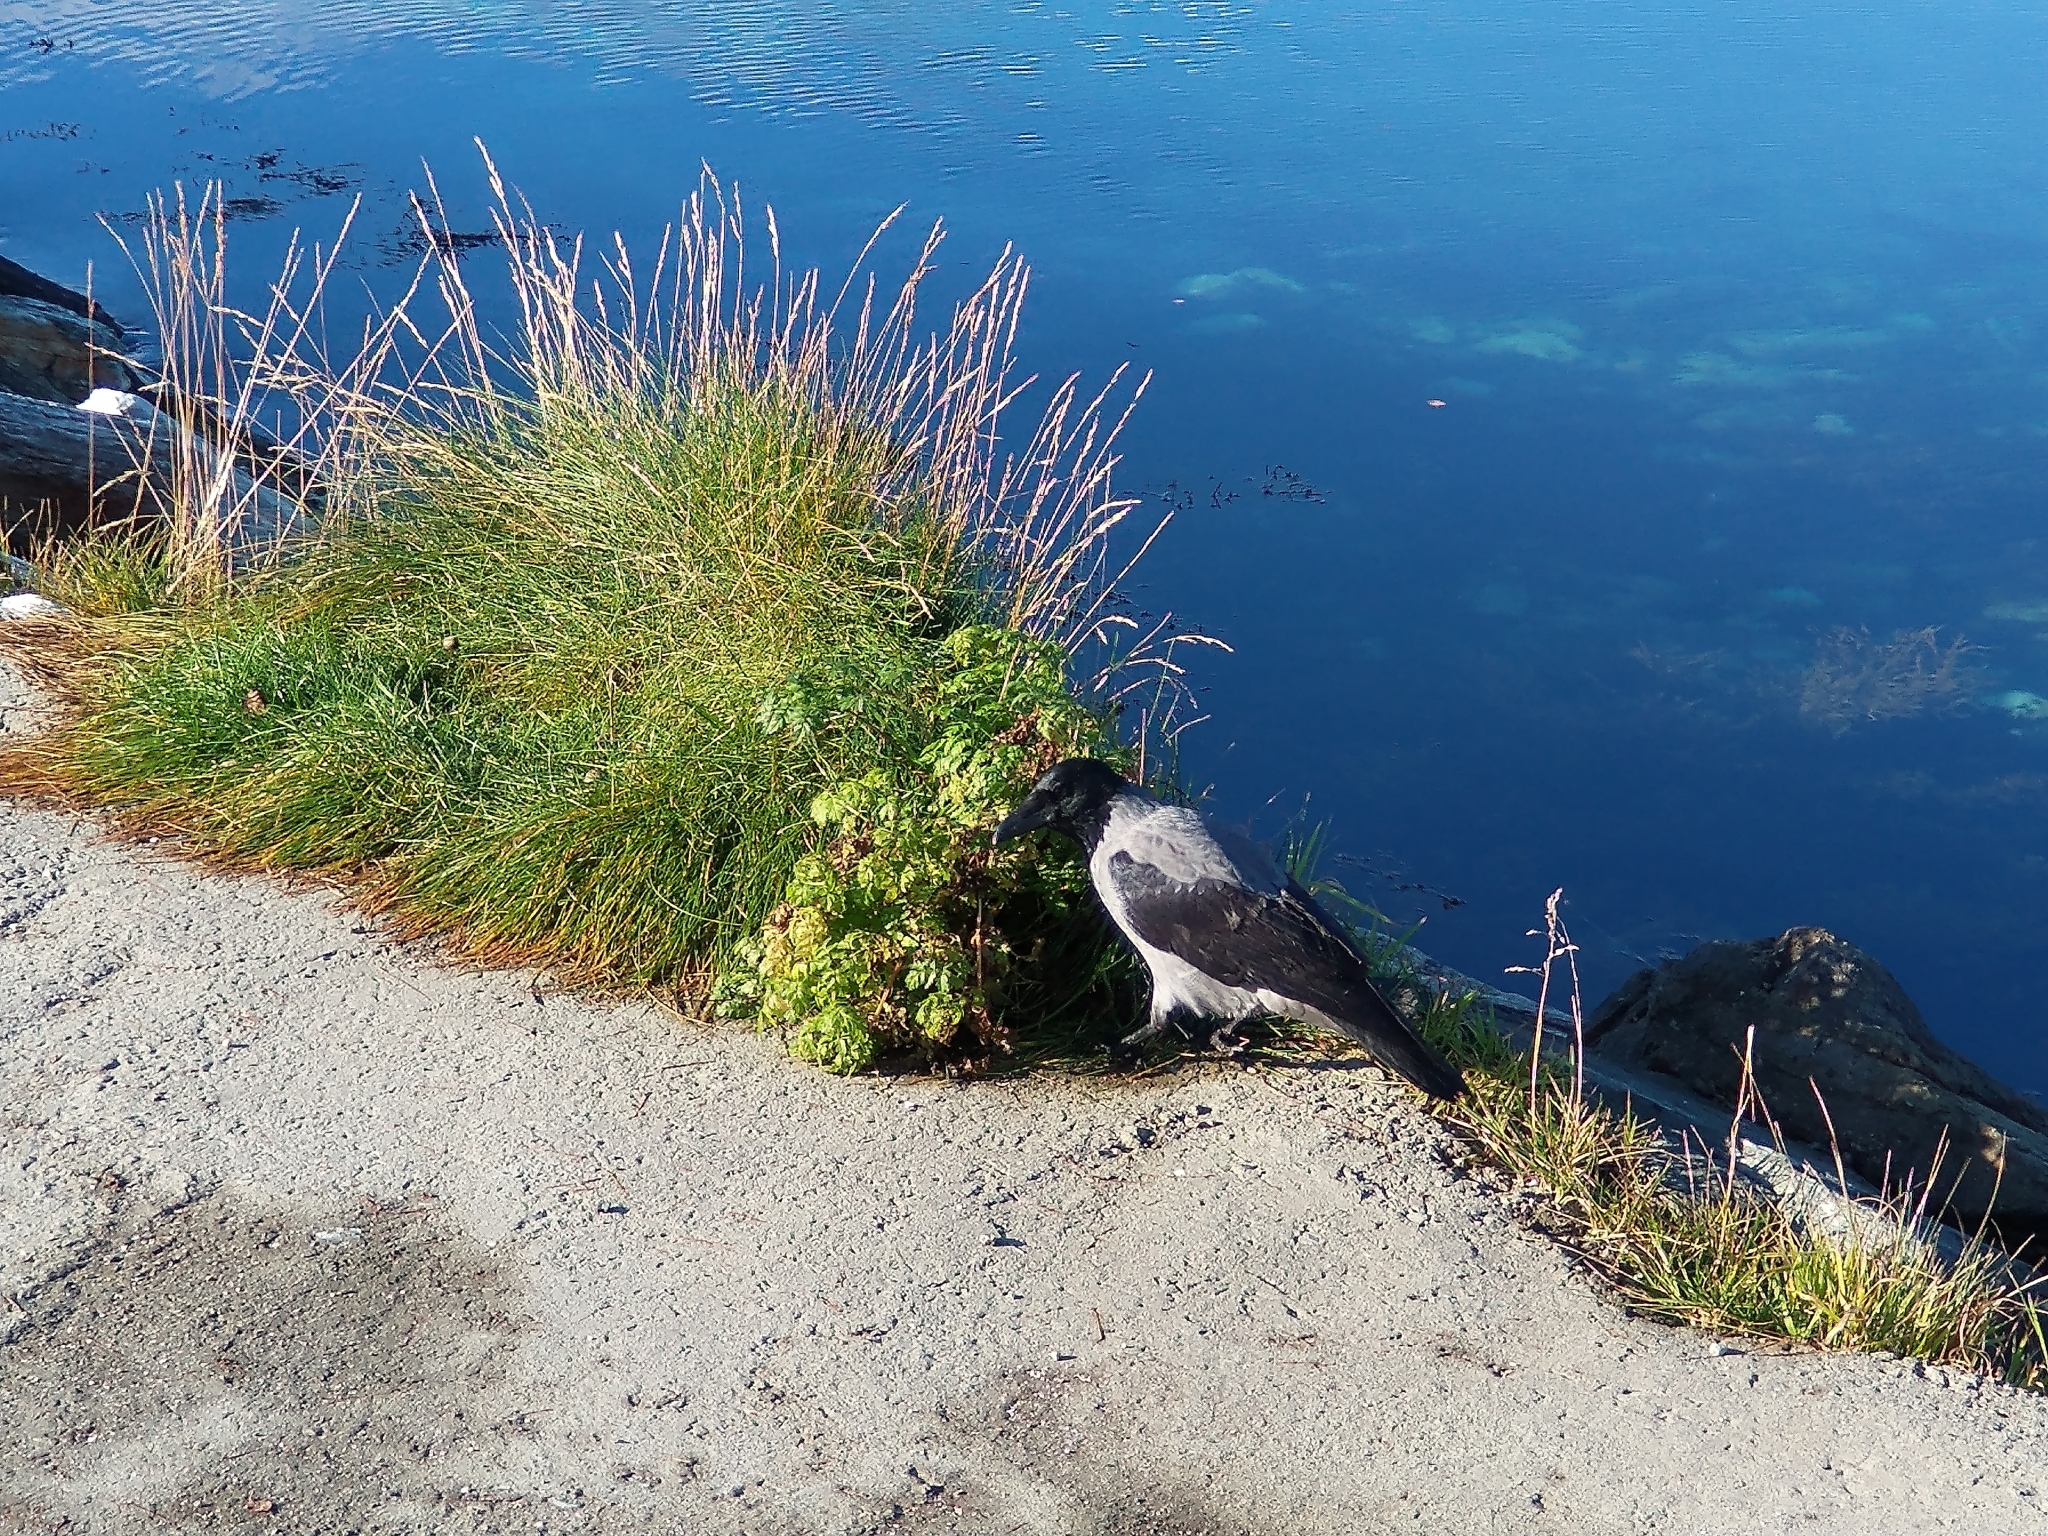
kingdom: Animalia
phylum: Chordata
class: Aves
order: Passeriformes
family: Corvidae
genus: Corvus
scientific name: Corvus cornix
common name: Hooded crow
